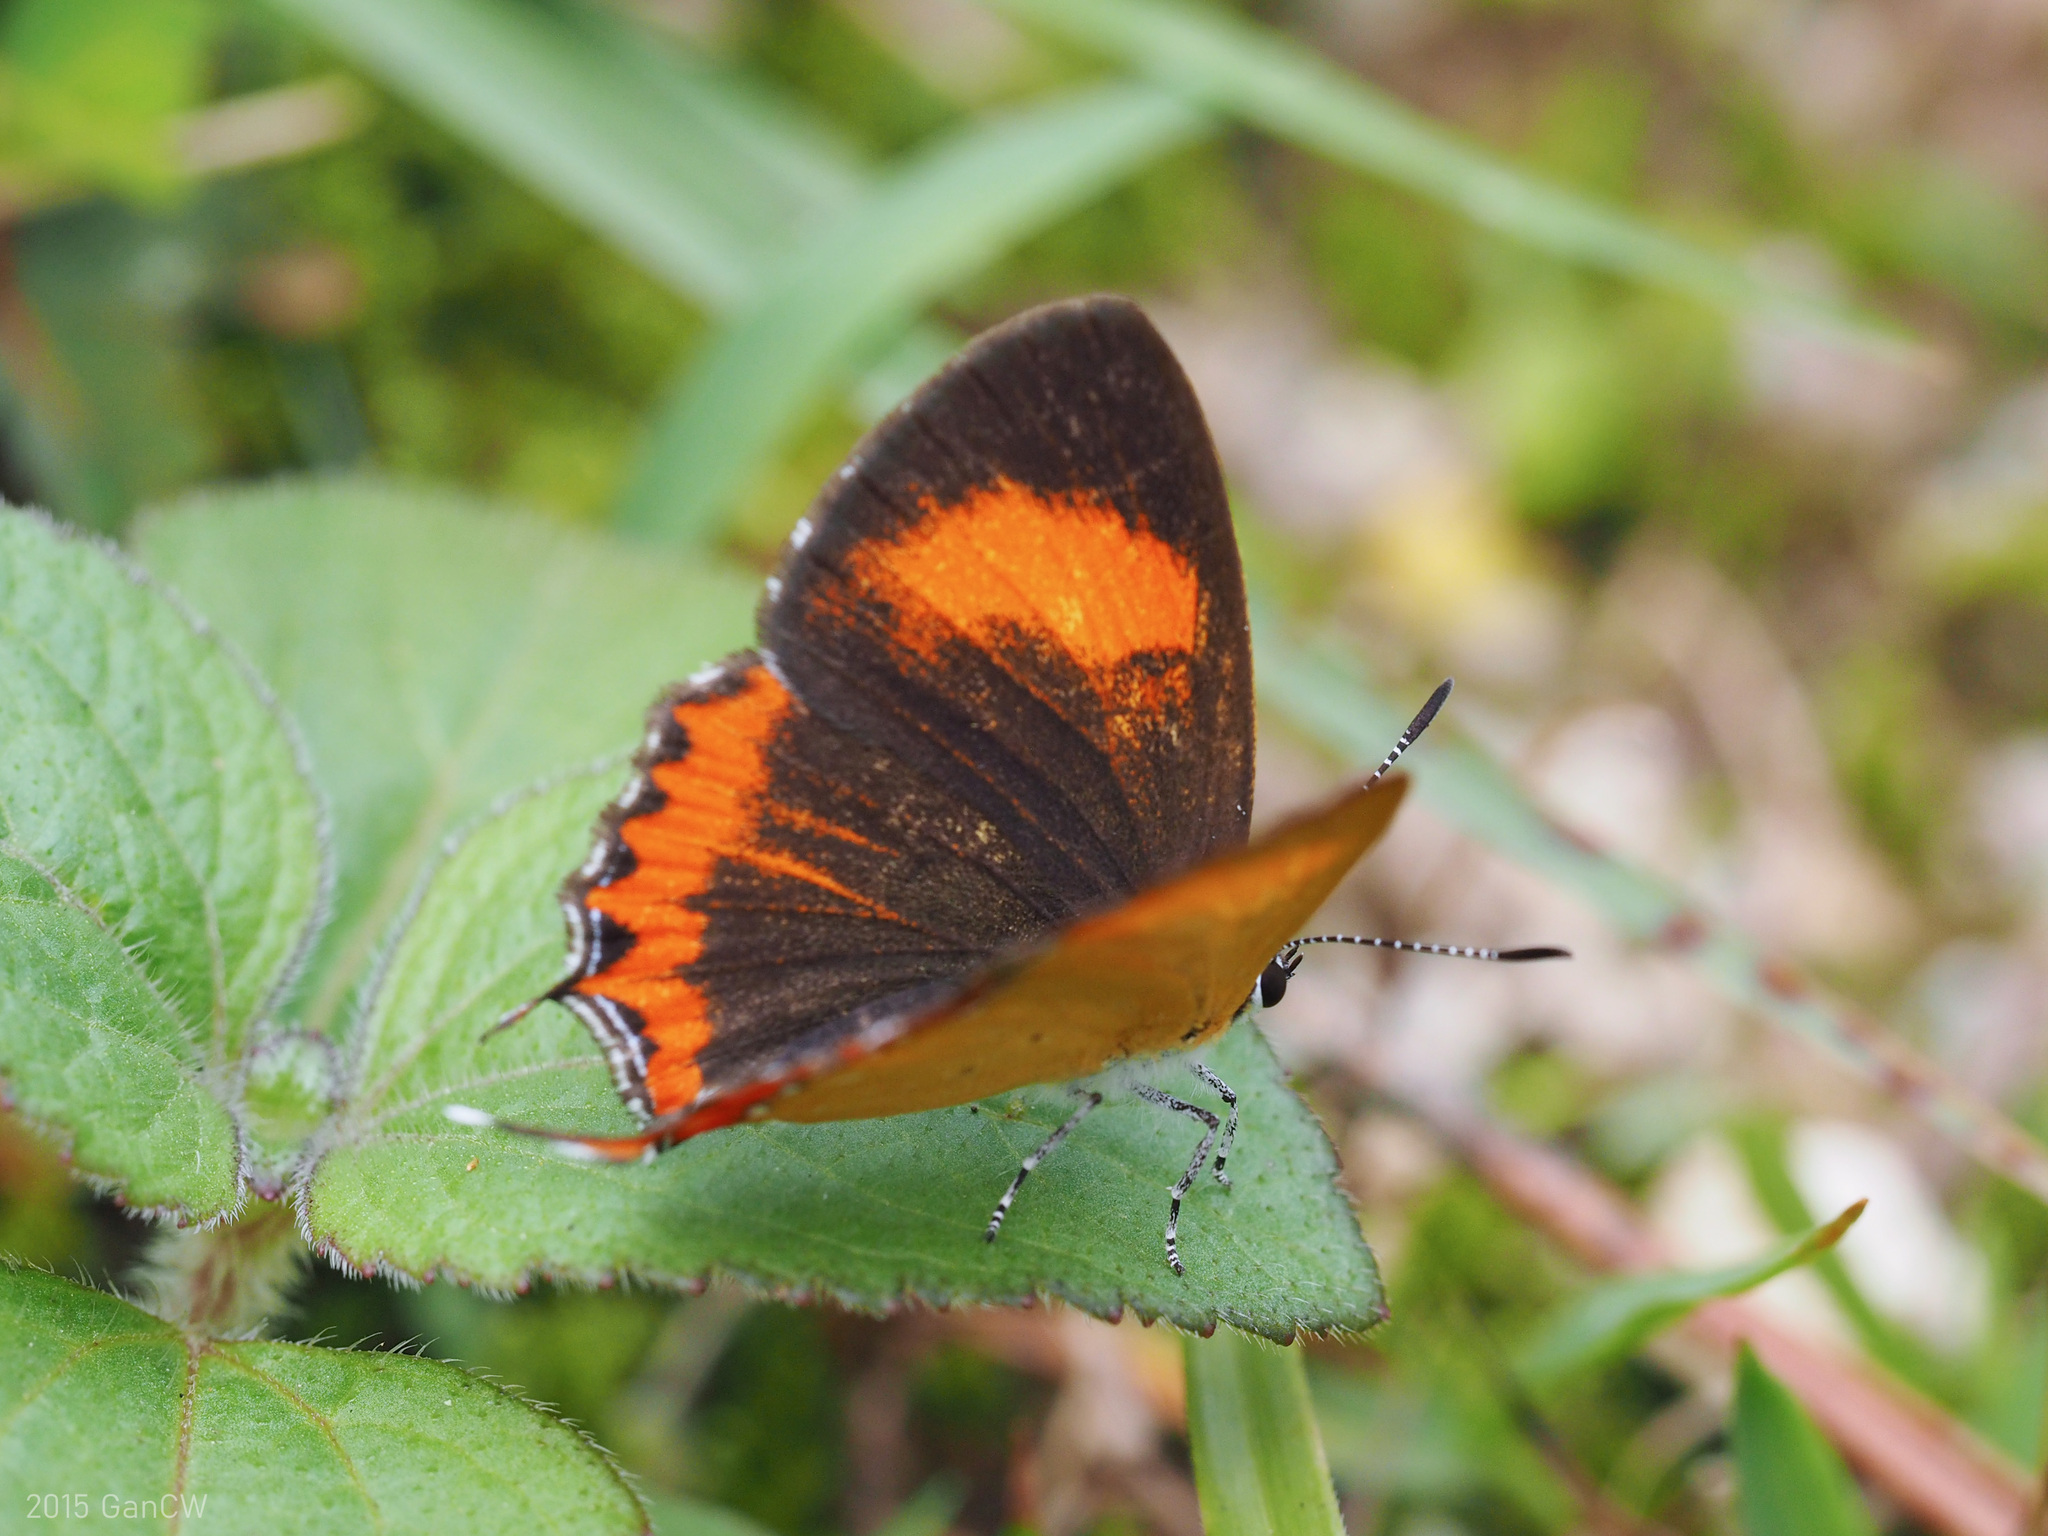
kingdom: Animalia
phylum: Arthropoda
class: Insecta
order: Lepidoptera
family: Lycaenidae
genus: Heliophorus
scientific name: Heliophorus epicles
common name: Purple sapphire
